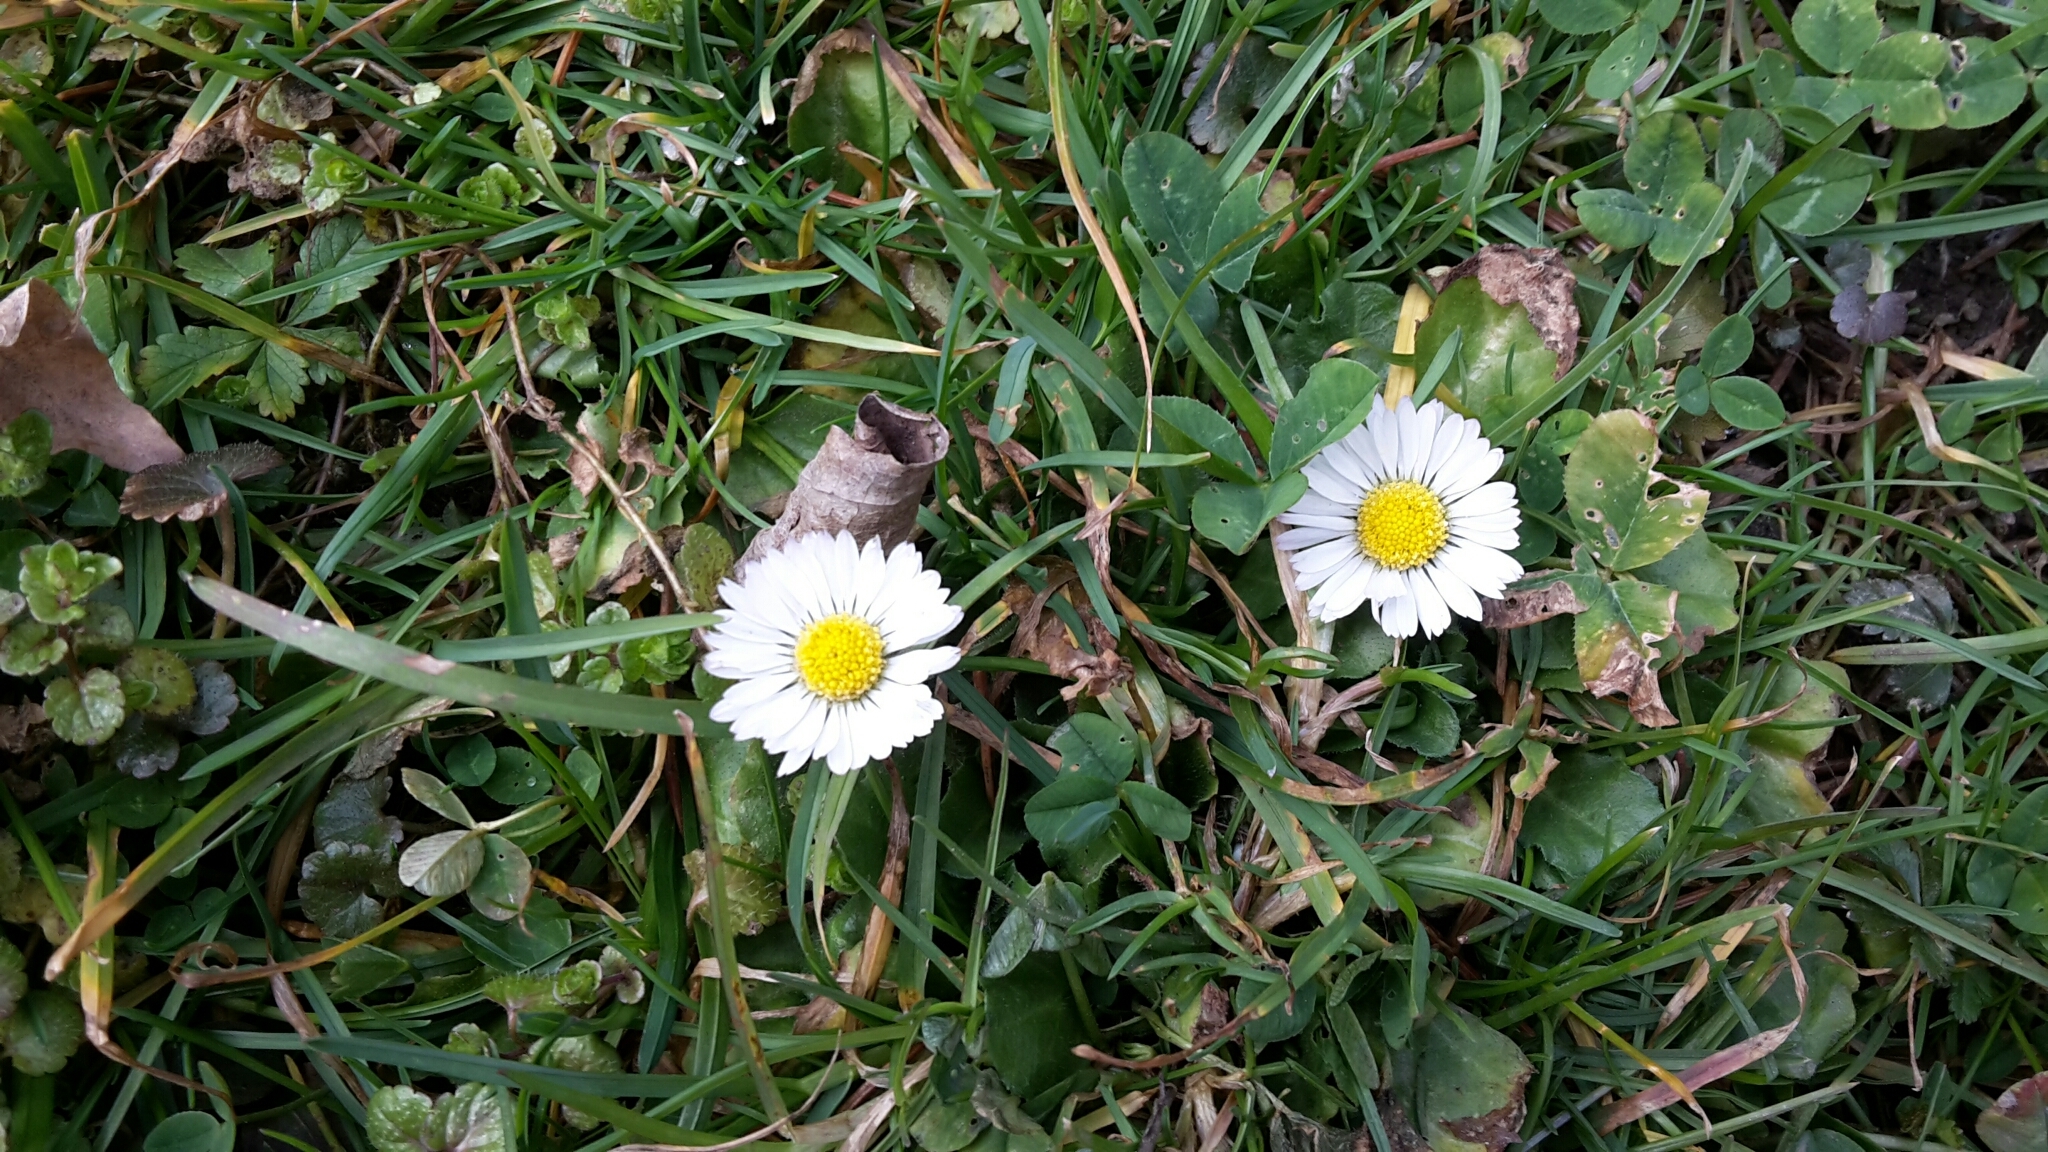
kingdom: Plantae
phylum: Tracheophyta
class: Magnoliopsida
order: Asterales
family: Asteraceae
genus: Bellis
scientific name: Bellis perennis
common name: Lawndaisy
